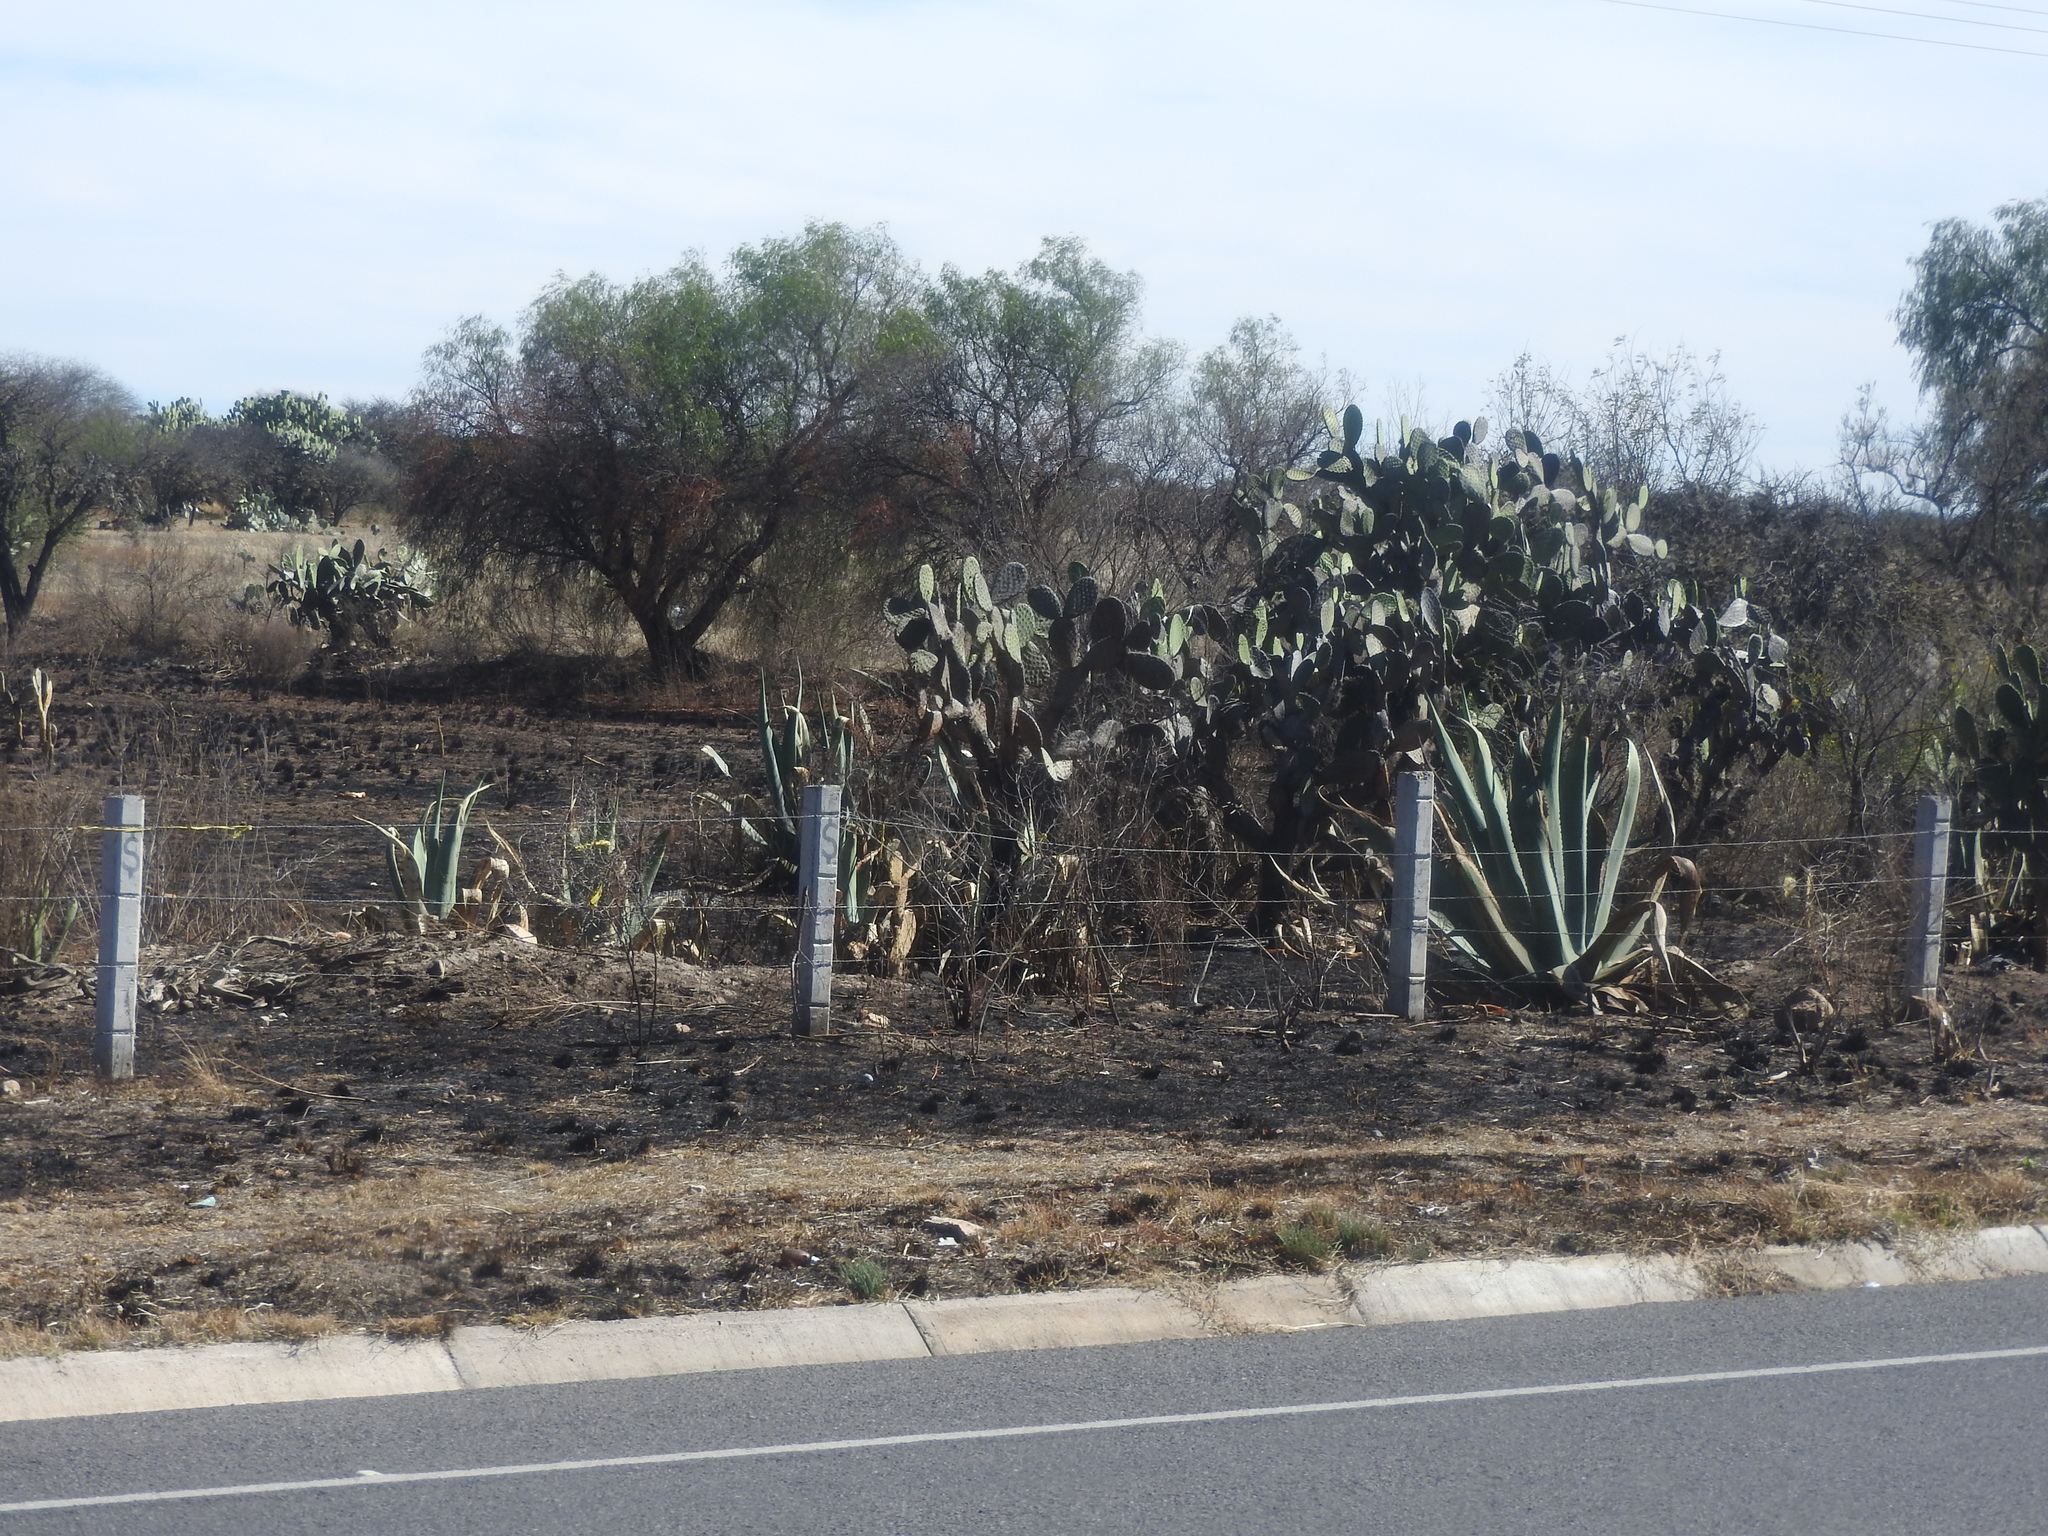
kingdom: Plantae
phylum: Tracheophyta
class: Magnoliopsida
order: Caryophyllales
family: Cactaceae
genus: Opuntia
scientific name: Opuntia
